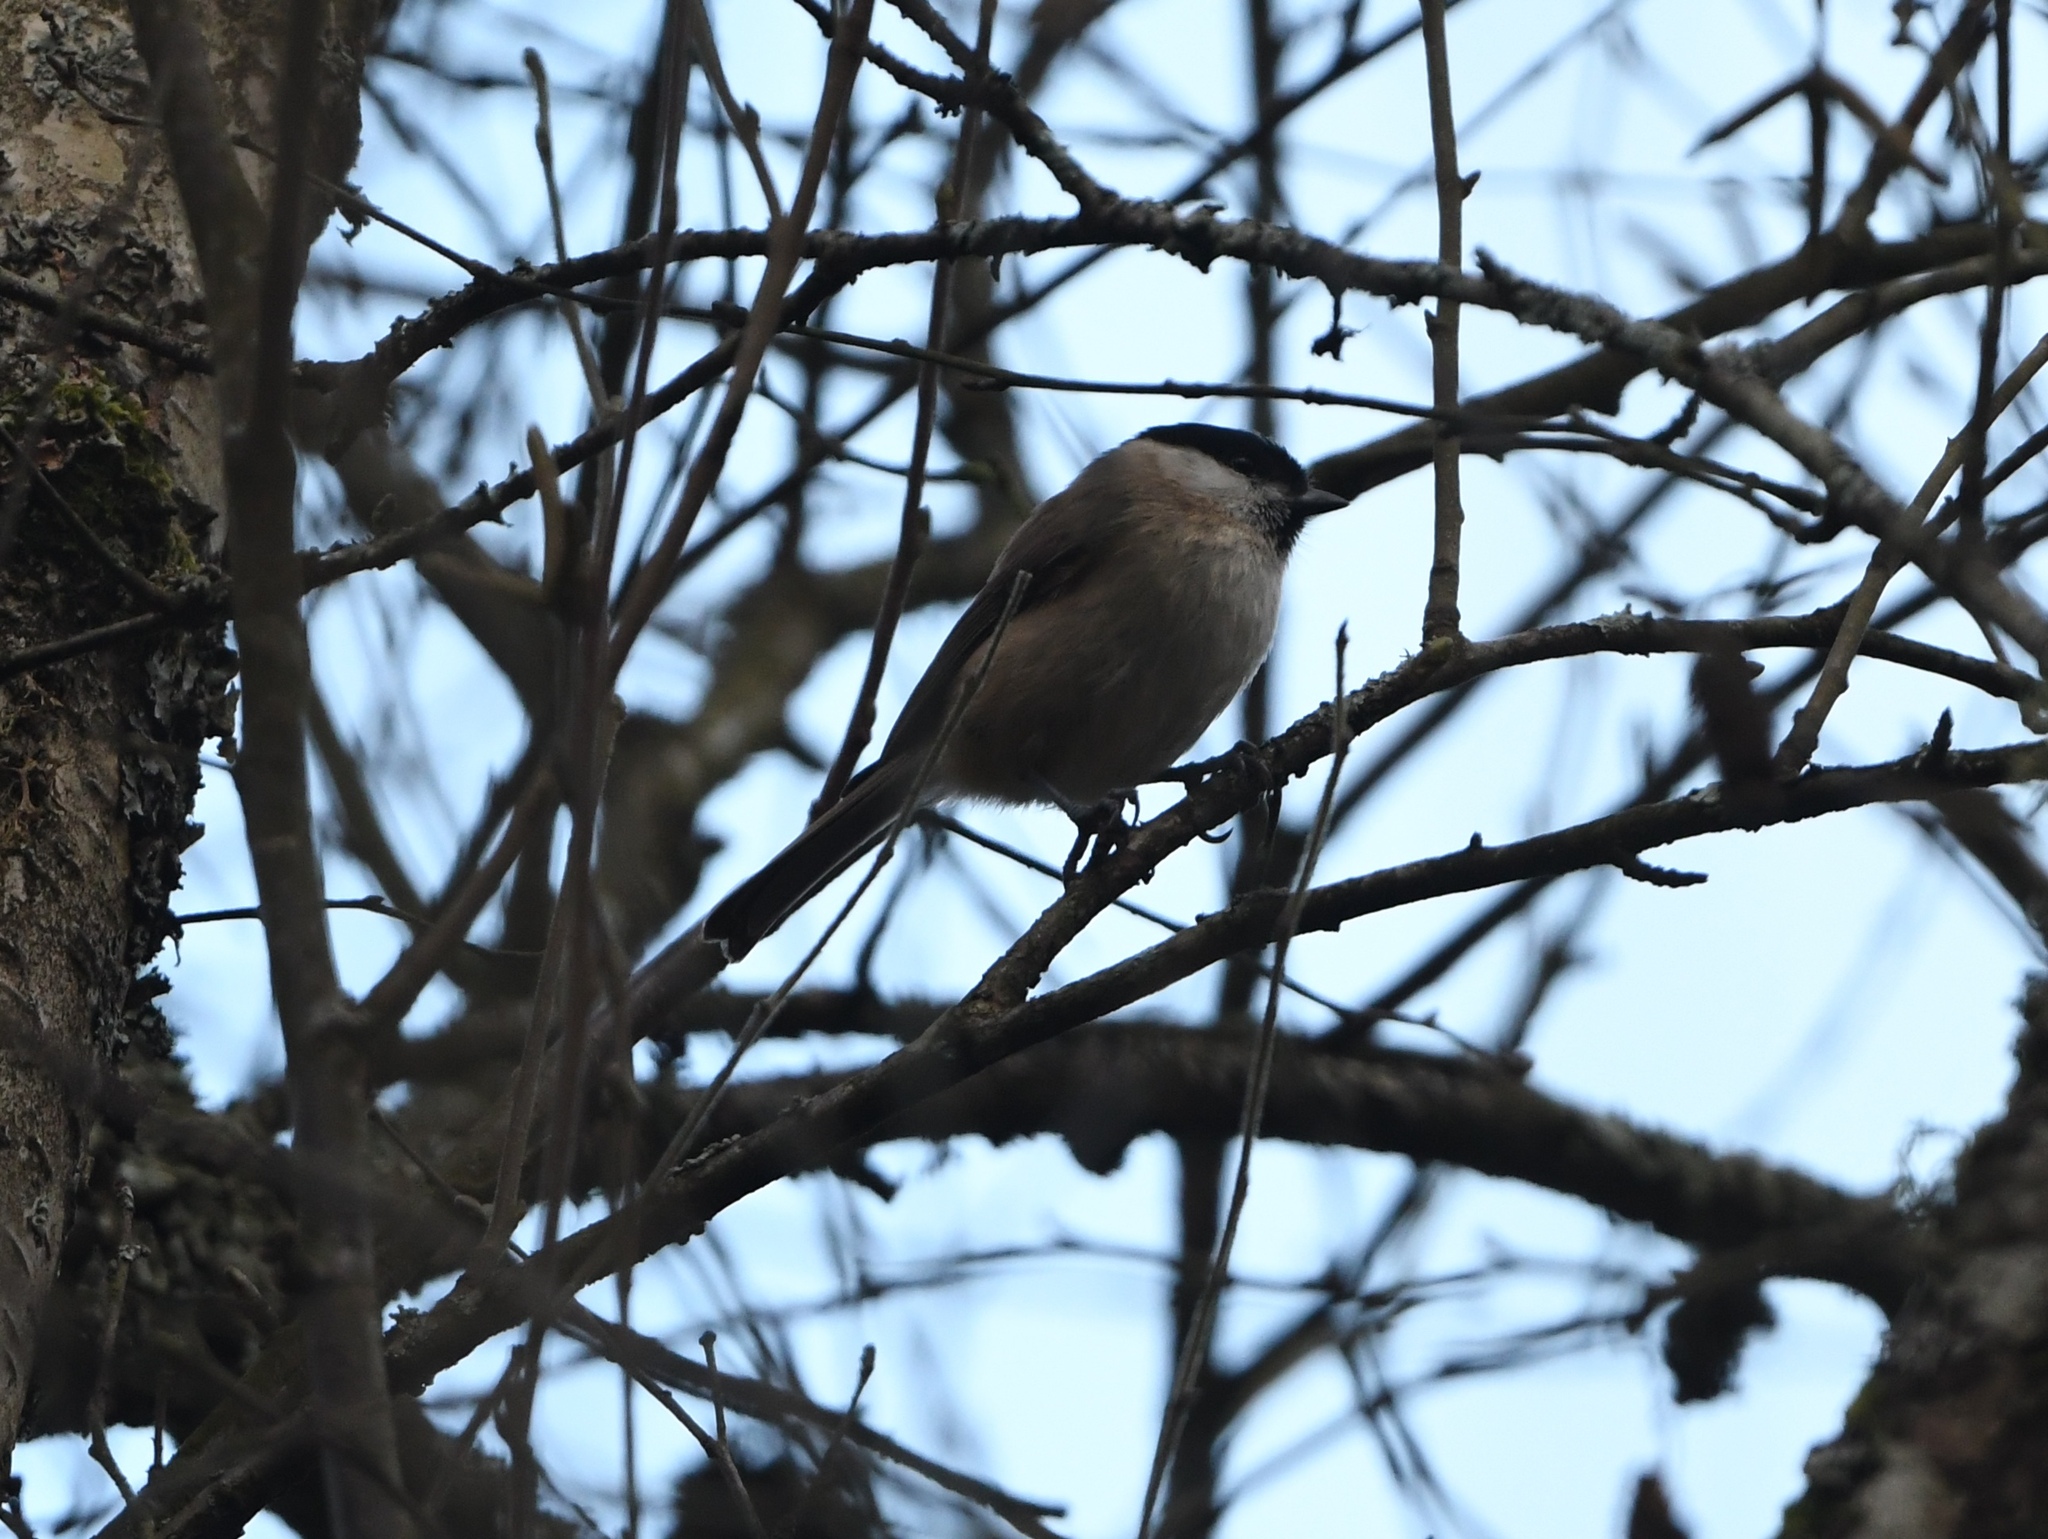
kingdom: Animalia
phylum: Chordata
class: Aves
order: Passeriformes
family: Paridae
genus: Poecile
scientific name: Poecile palustris
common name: Marsh tit
